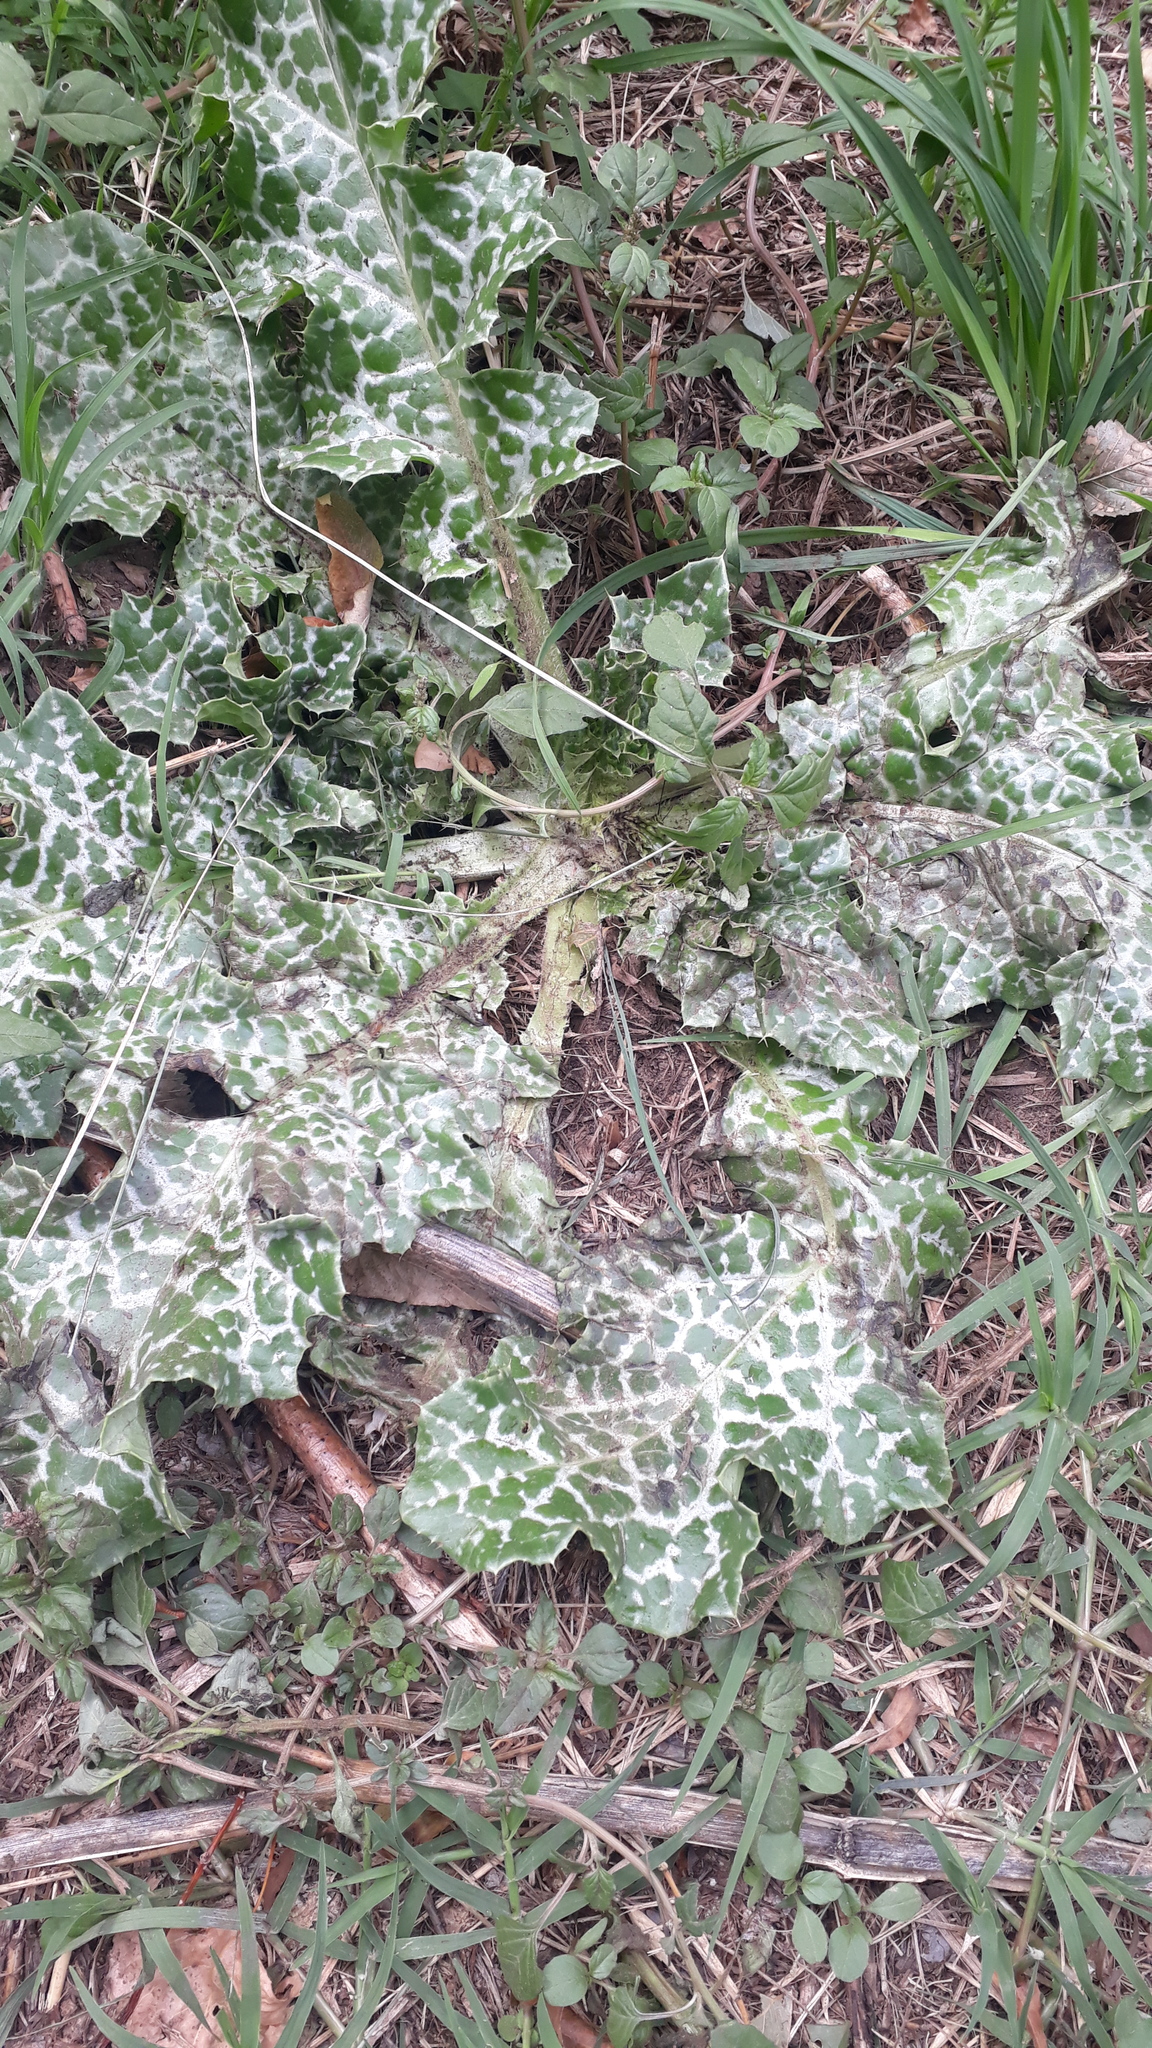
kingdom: Plantae
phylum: Tracheophyta
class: Magnoliopsida
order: Asterales
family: Asteraceae
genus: Silybum
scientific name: Silybum marianum
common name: Milk thistle
